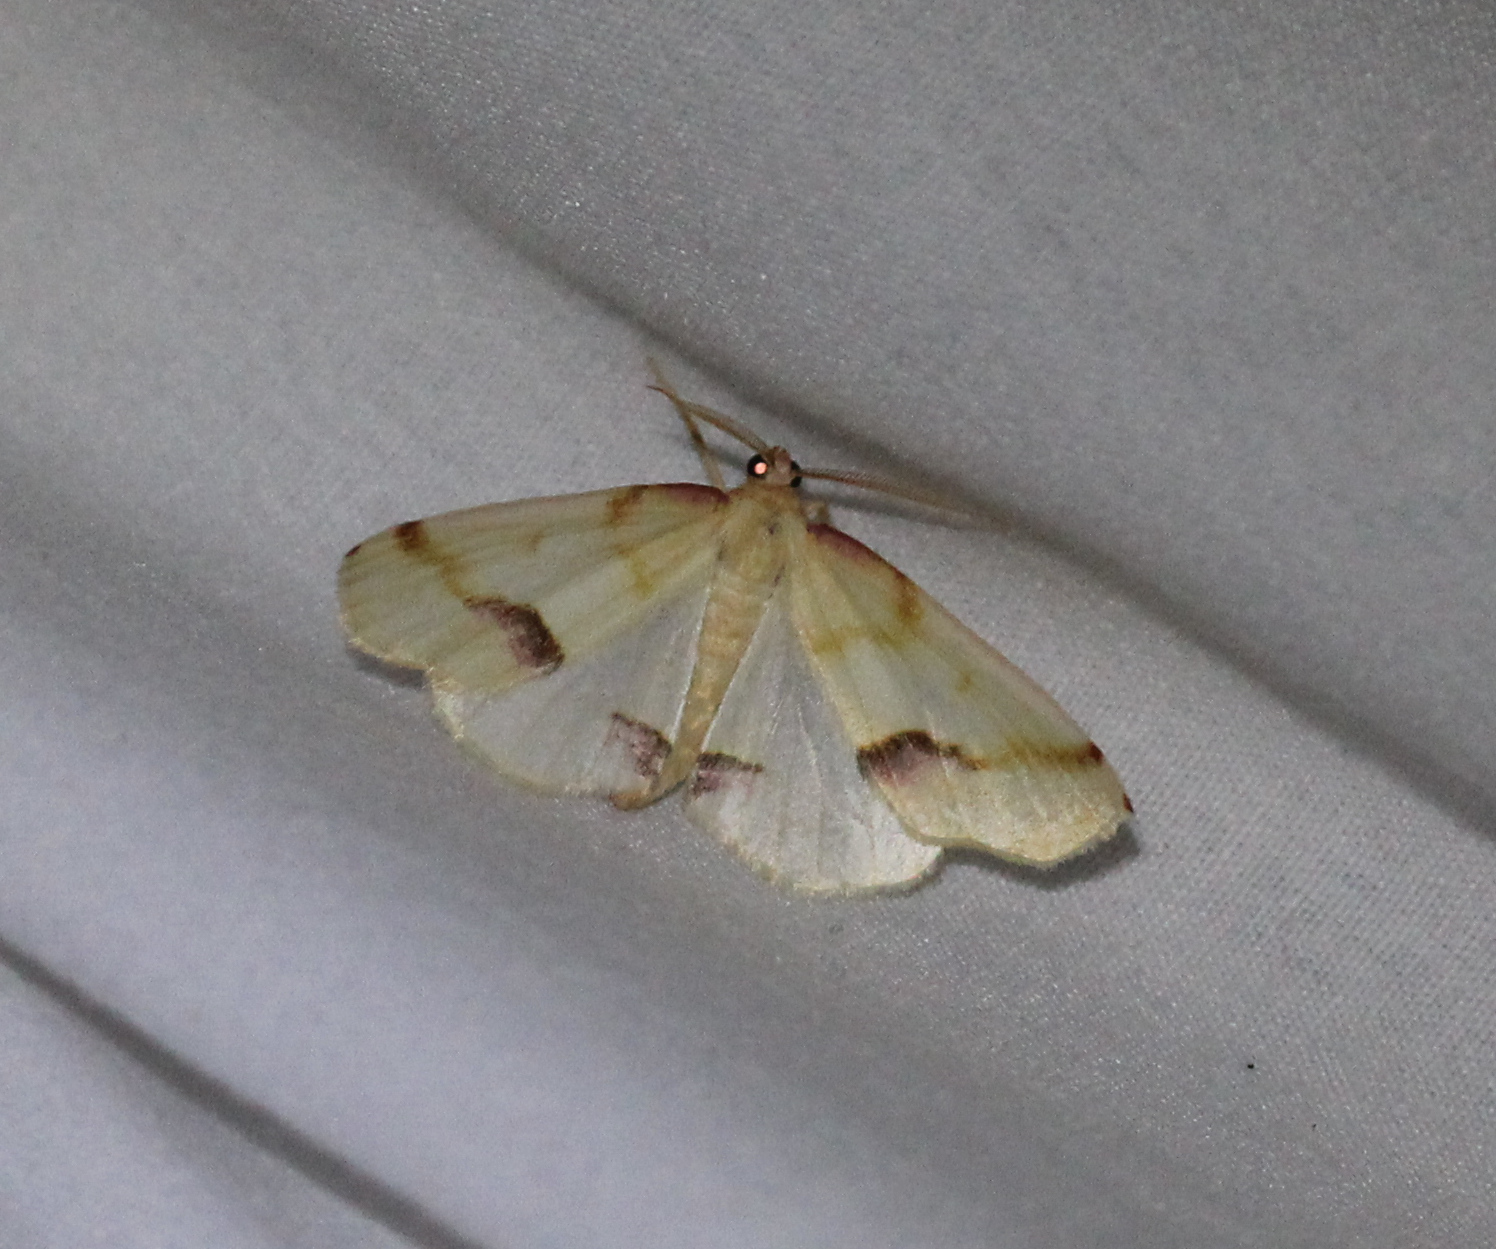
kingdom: Animalia
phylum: Arthropoda
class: Insecta
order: Lepidoptera
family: Geometridae
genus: Plagodis
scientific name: Plagodis serinaria
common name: Lemon plagodis
